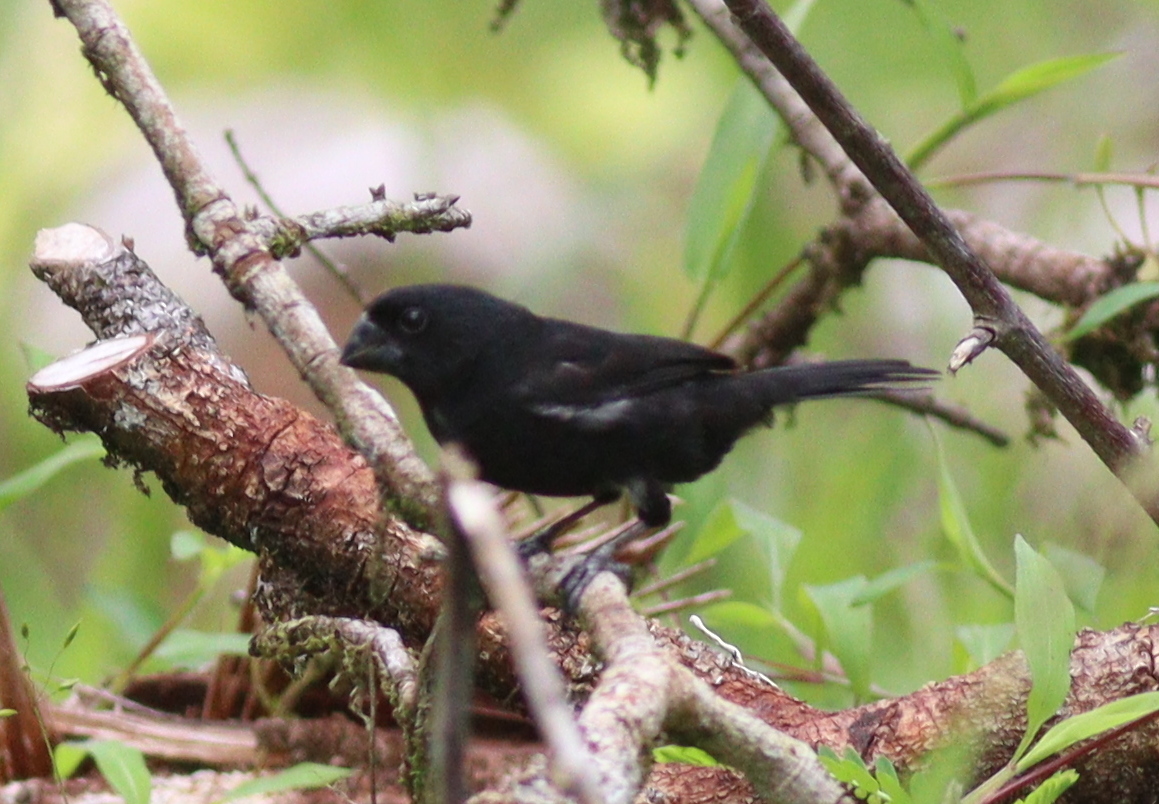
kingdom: Animalia
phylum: Chordata
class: Aves
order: Passeriformes
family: Thraupidae
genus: Sporophila
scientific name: Sporophila funerea
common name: Thick-billed seed-finch
